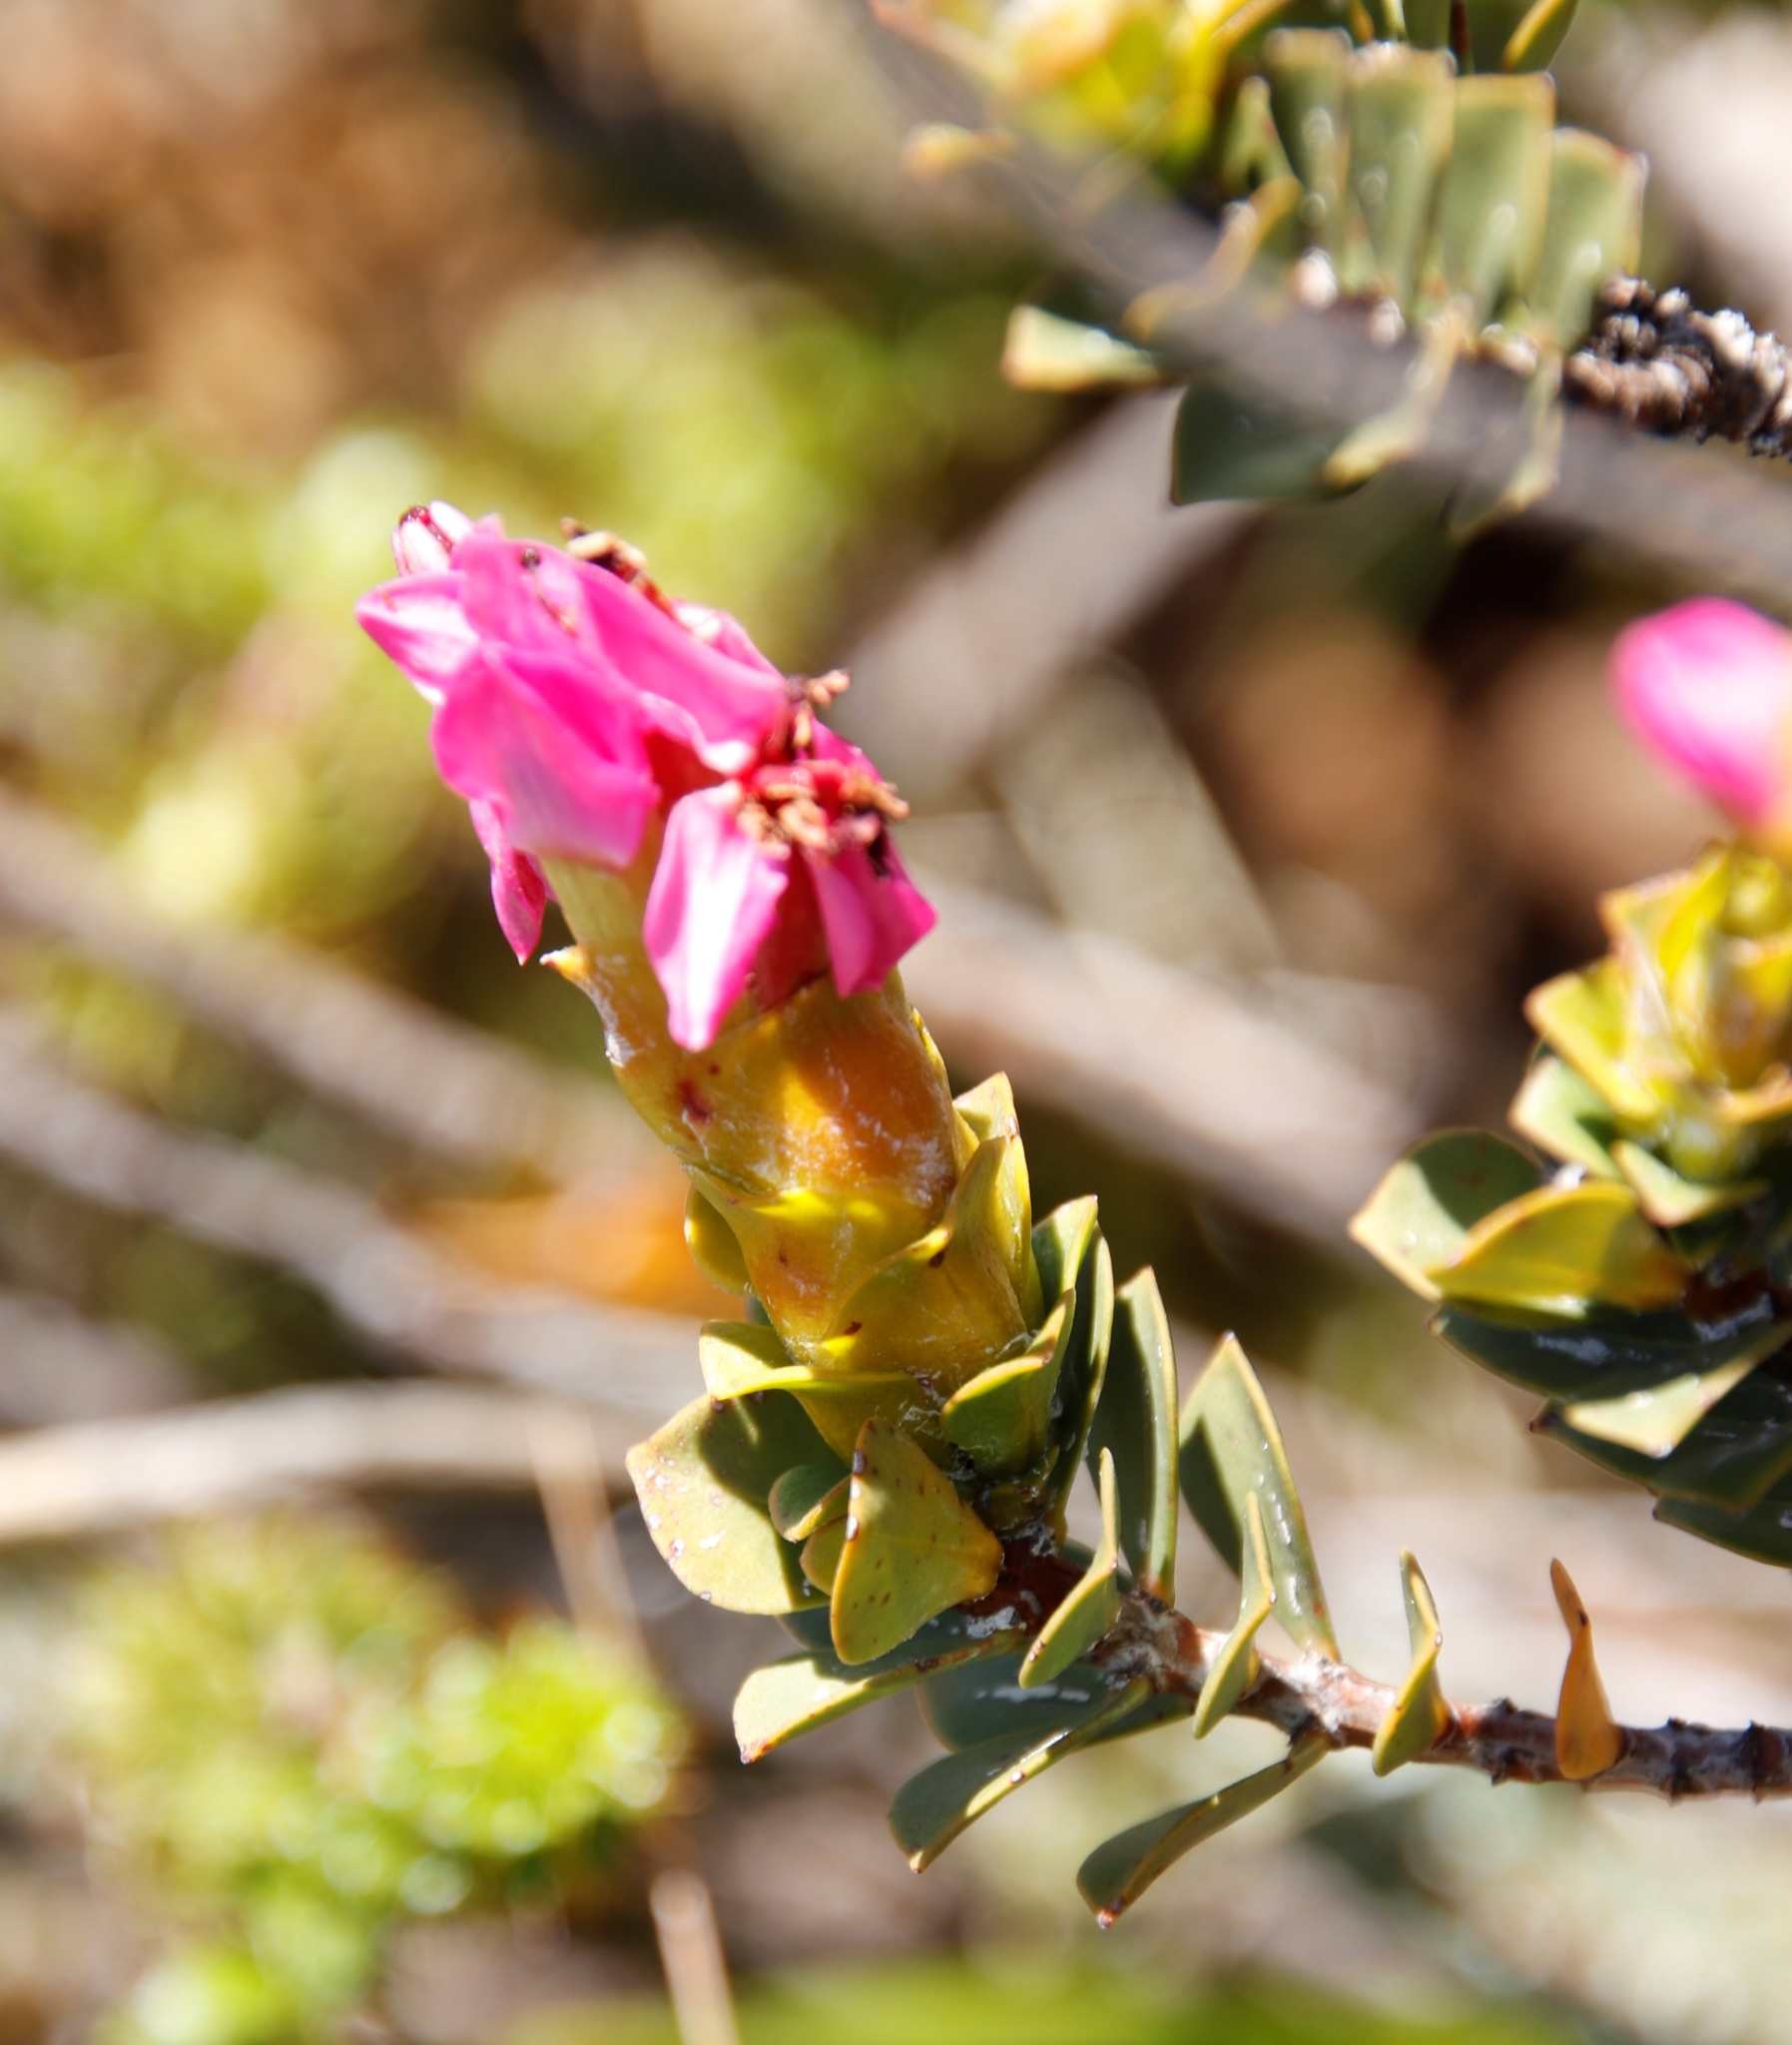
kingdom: Plantae
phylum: Tracheophyta
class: Magnoliopsida
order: Myrtales
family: Penaeaceae
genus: Saltera
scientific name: Saltera sarcocolla
